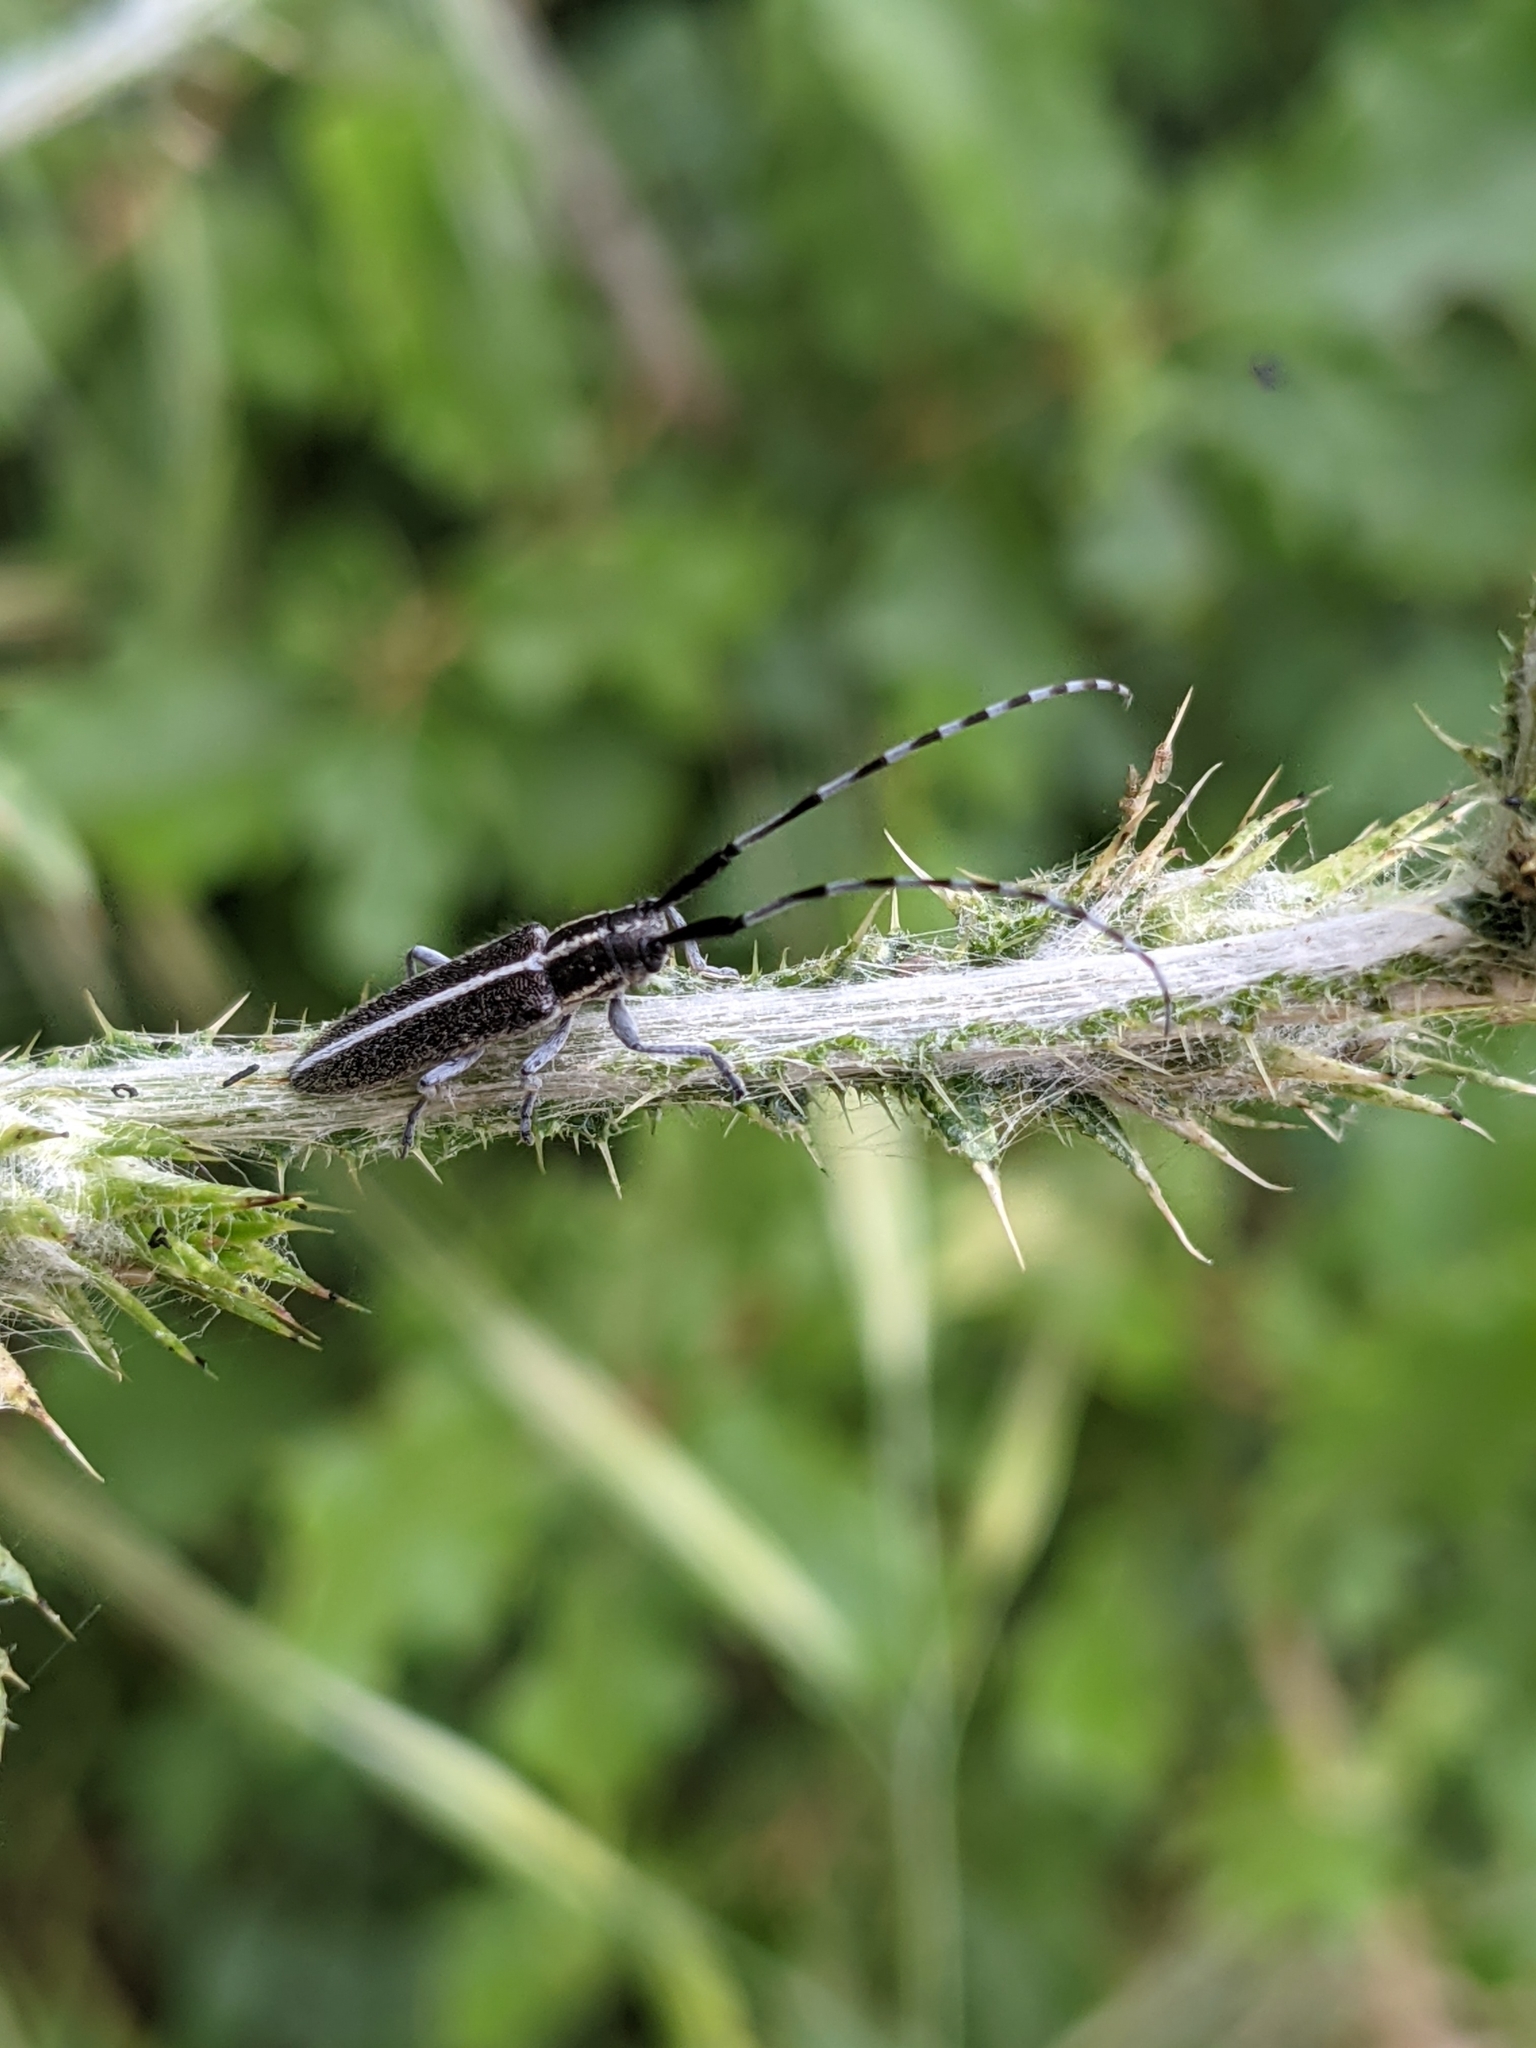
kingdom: Animalia
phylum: Arthropoda
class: Insecta
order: Coleoptera
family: Cerambycidae
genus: Agapanthia
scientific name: Agapanthia cardui
